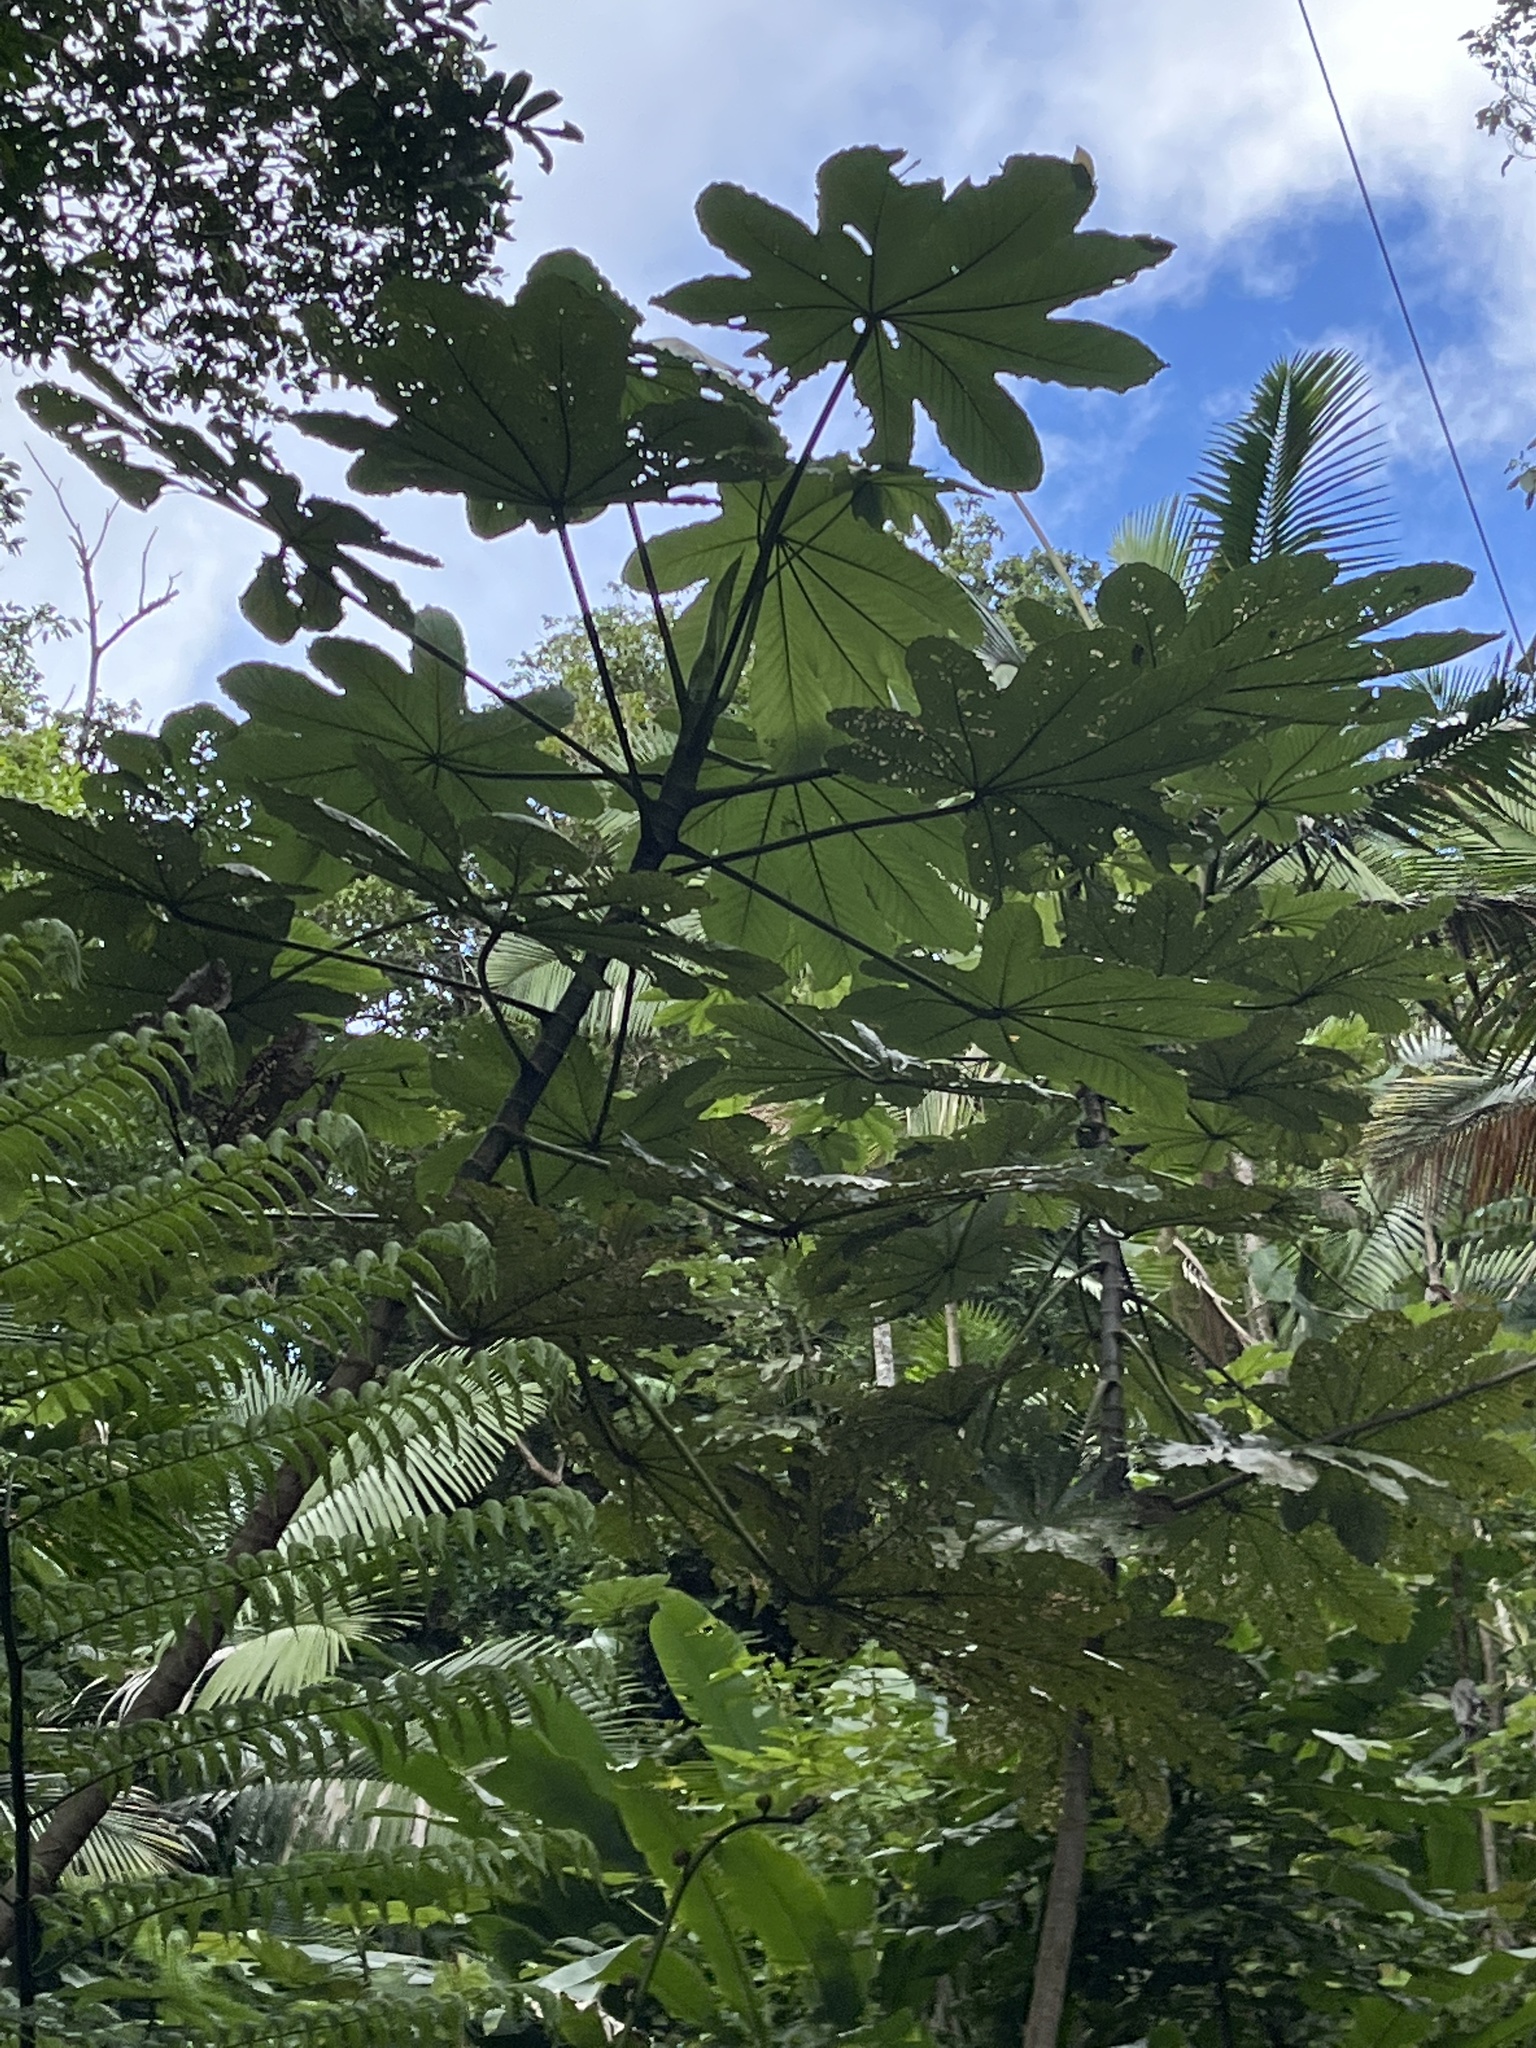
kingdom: Plantae
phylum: Tracheophyta
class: Magnoliopsida
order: Rosales
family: Urticaceae
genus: Cecropia
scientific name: Cecropia schreberiana
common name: Trumpet tree
